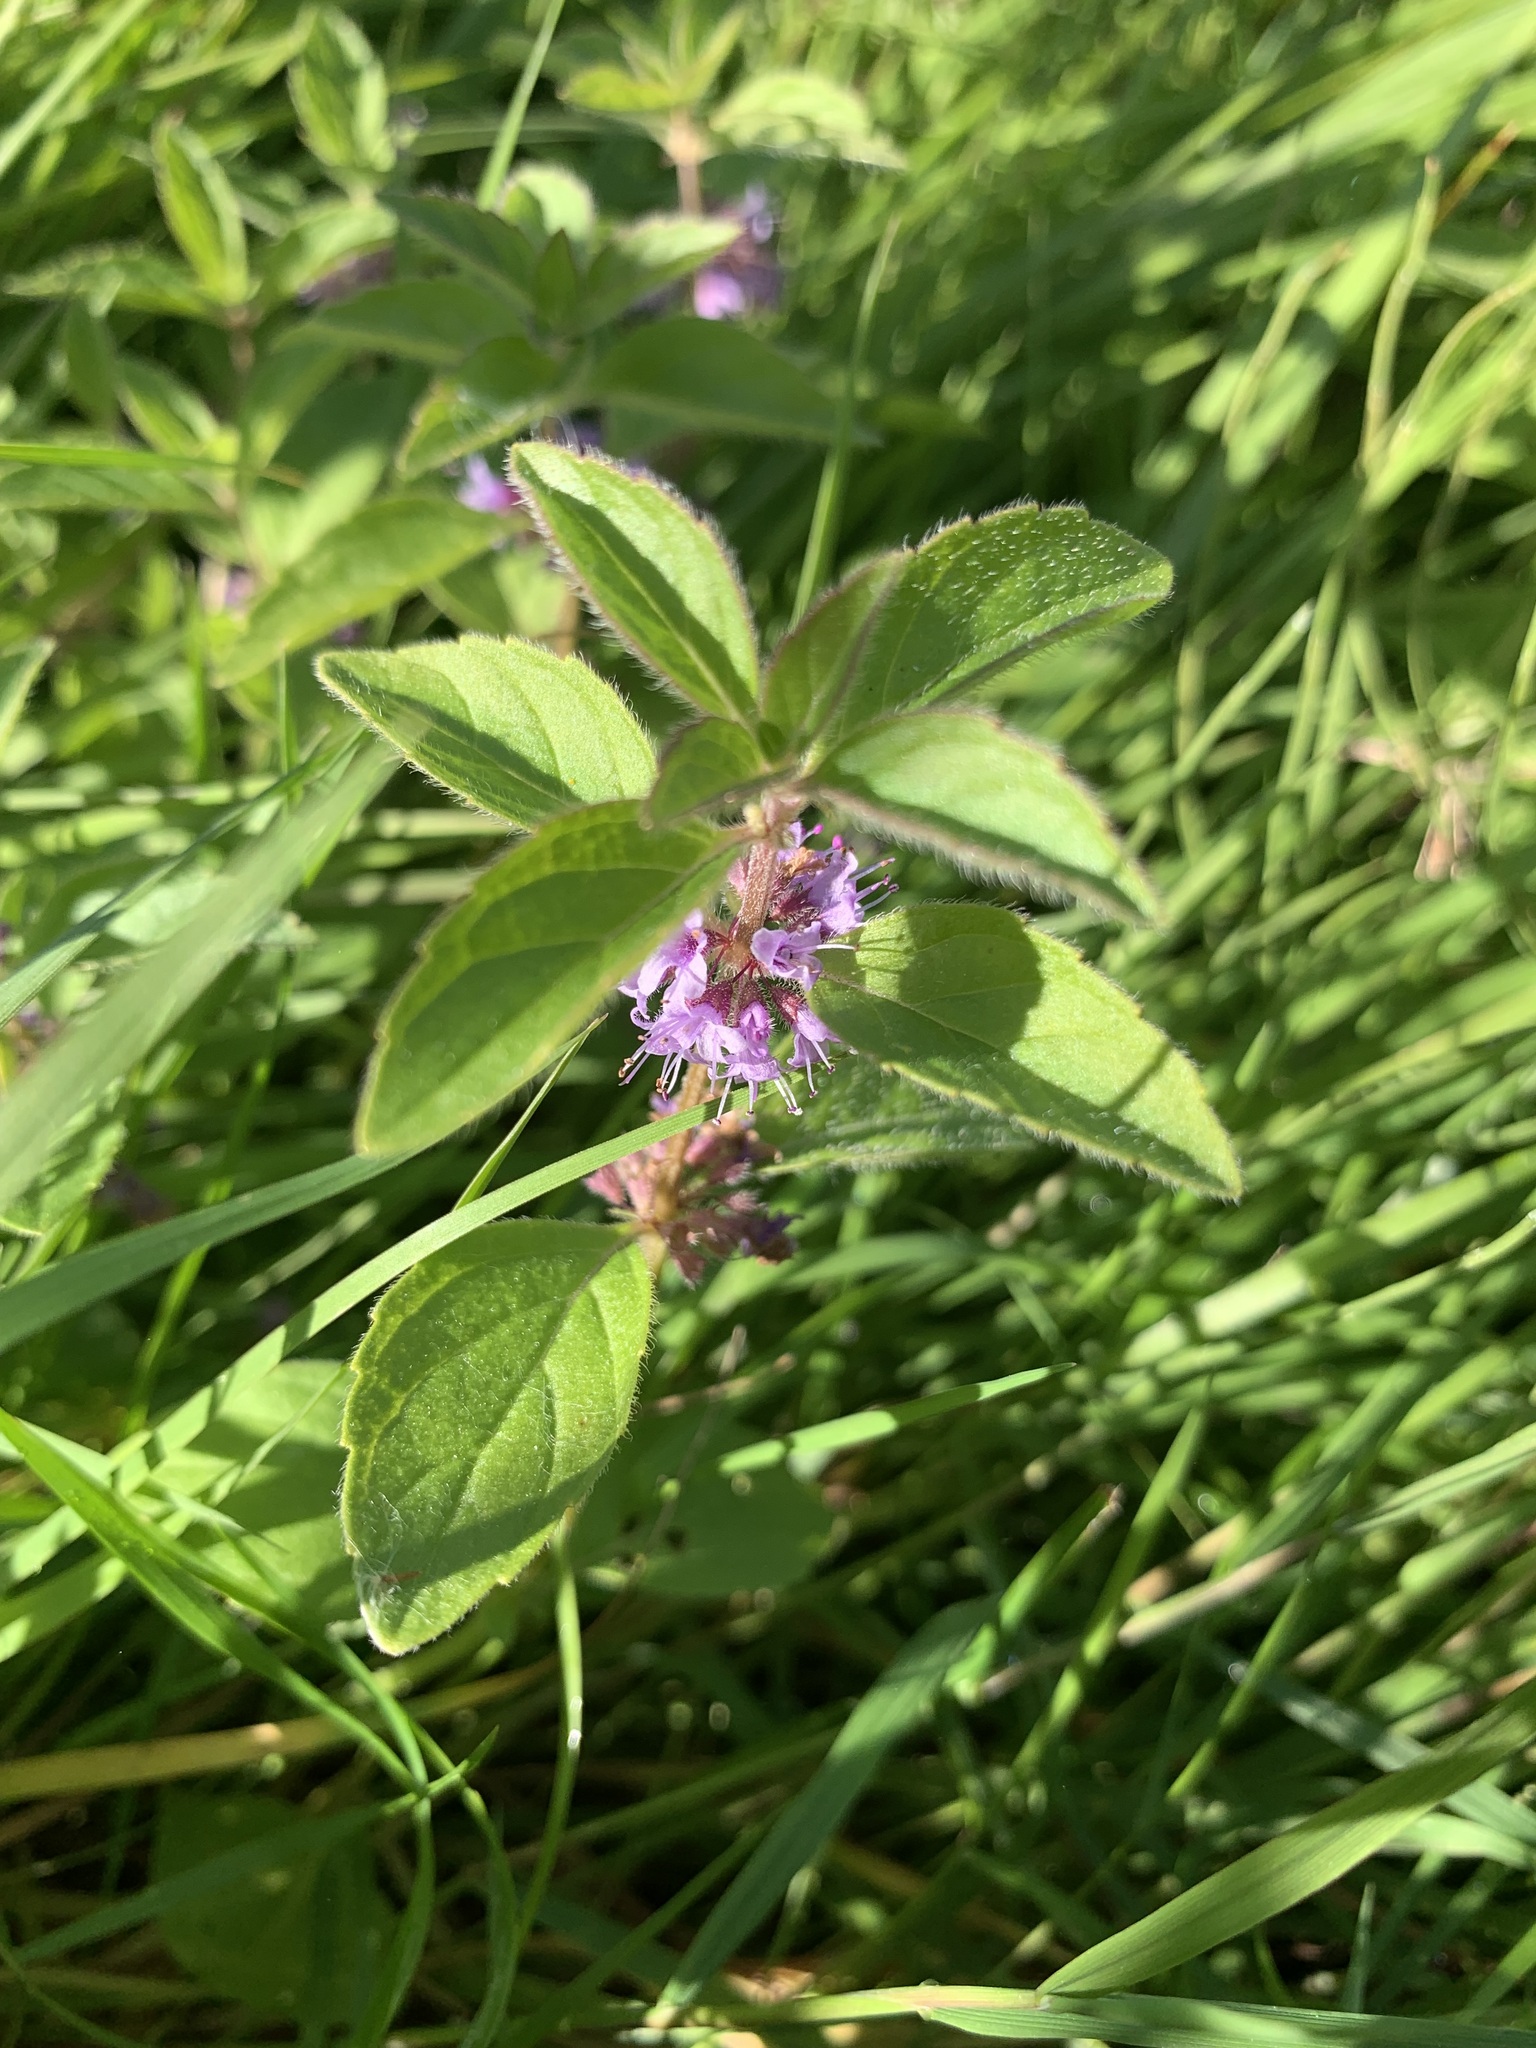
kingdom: Plantae
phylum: Tracheophyta
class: Magnoliopsida
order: Lamiales
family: Lamiaceae
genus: Mentha
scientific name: Mentha arvensis
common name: Corn mint
